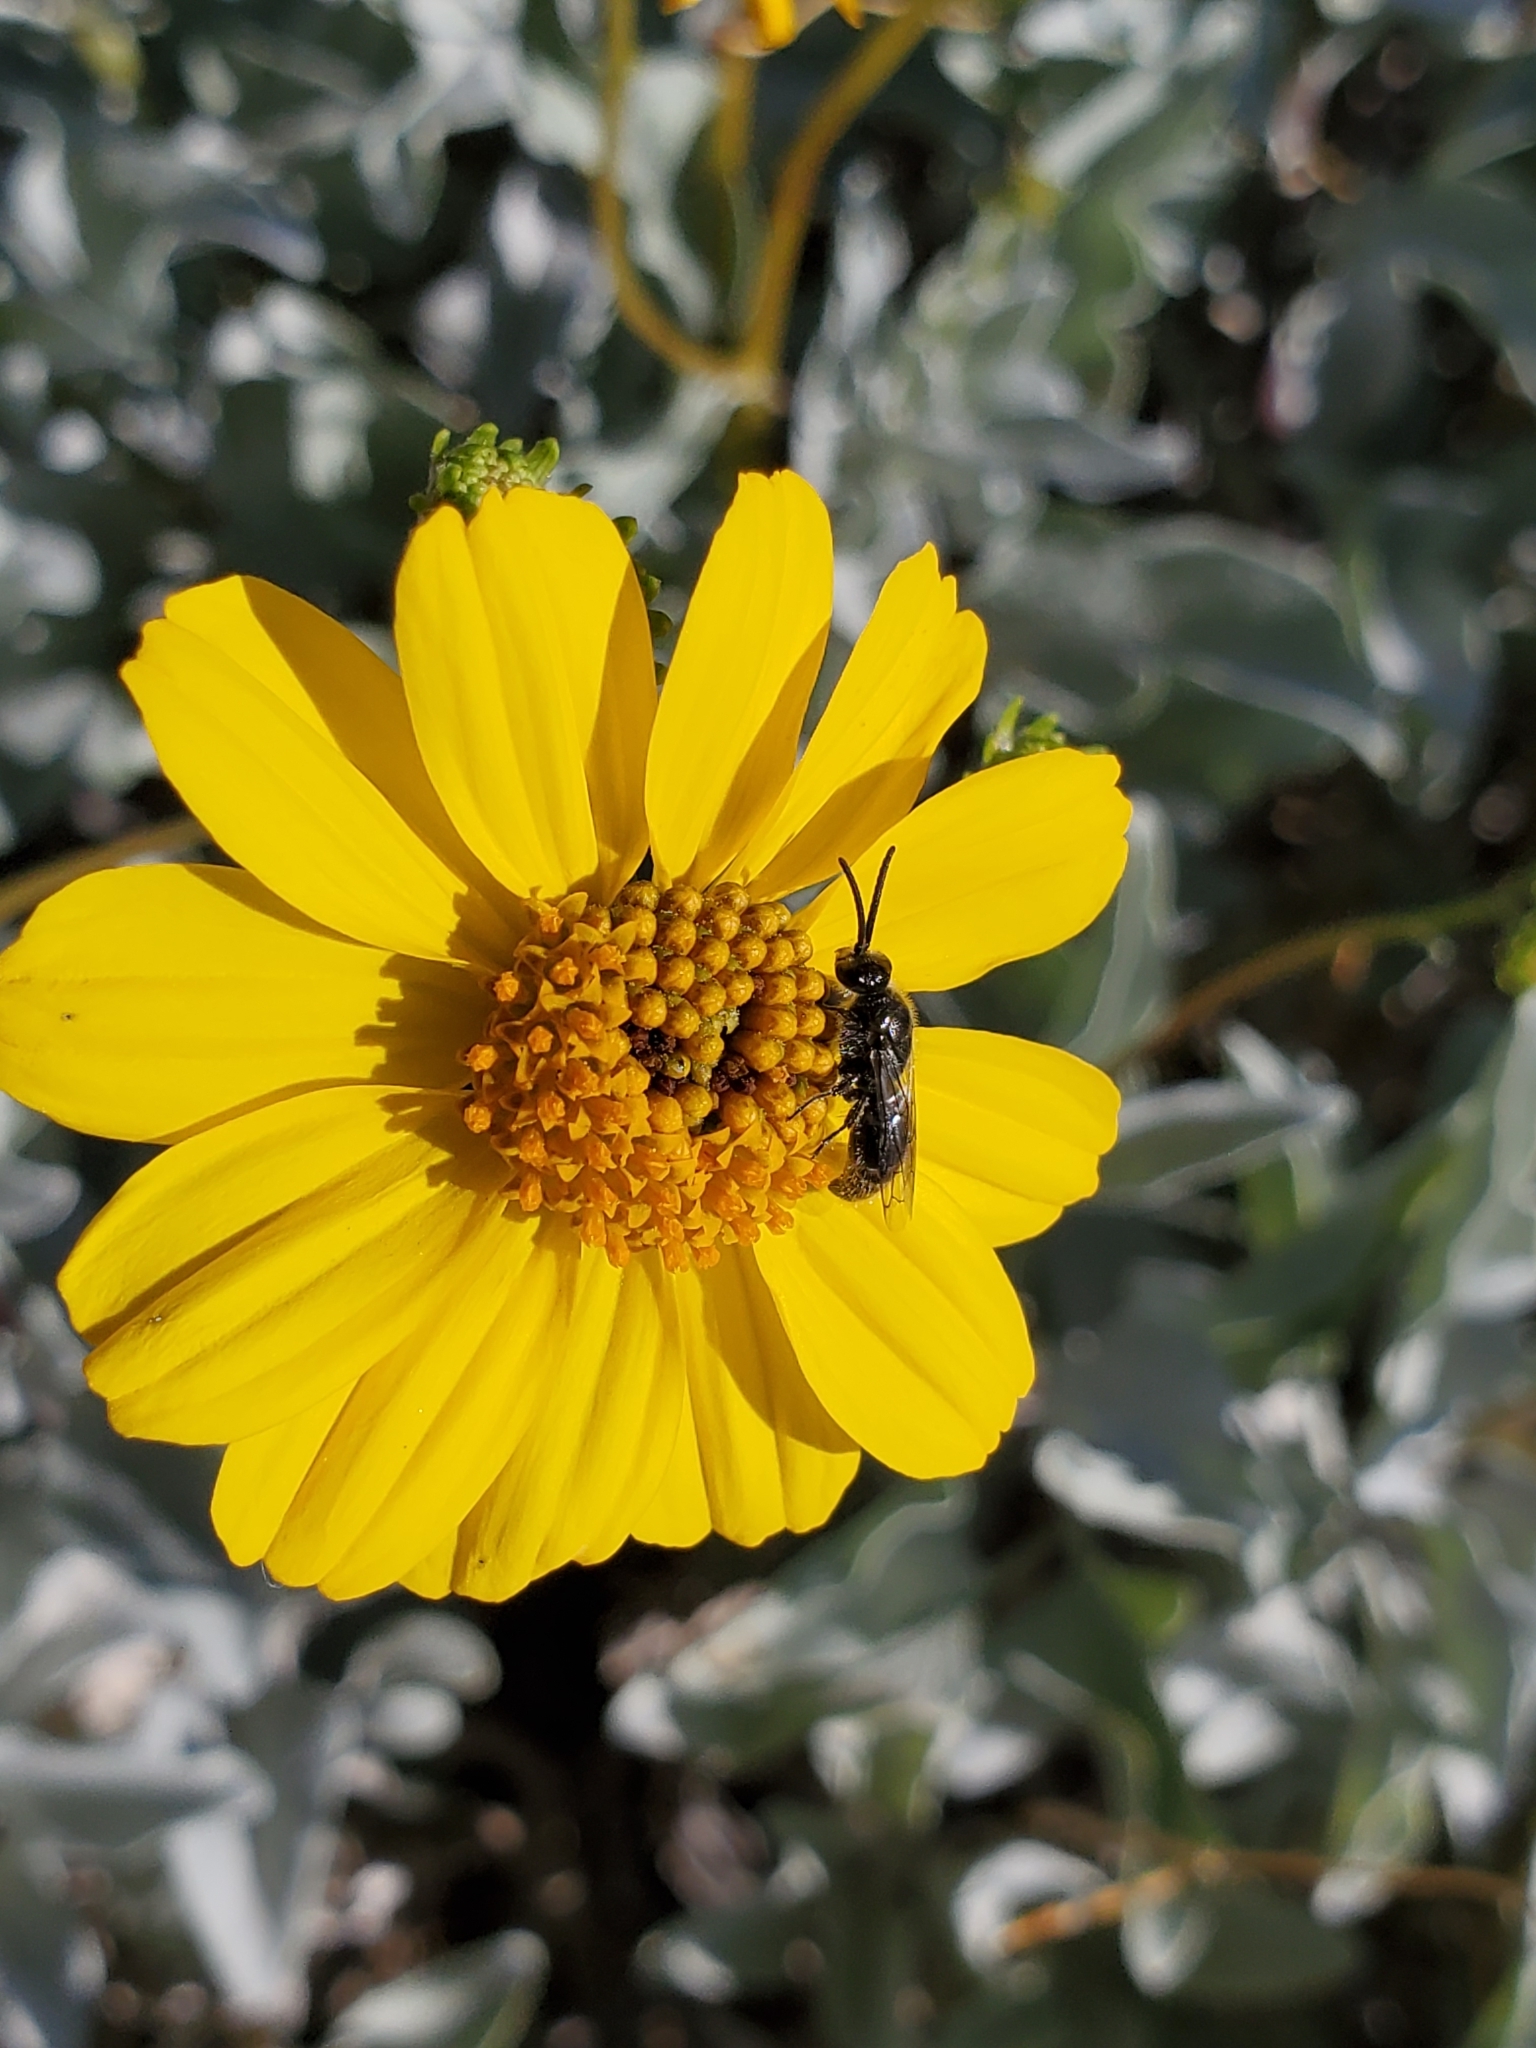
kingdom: Plantae
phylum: Tracheophyta
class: Magnoliopsida
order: Asterales
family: Asteraceae
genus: Encelia
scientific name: Encelia farinosa
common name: Brittlebush
